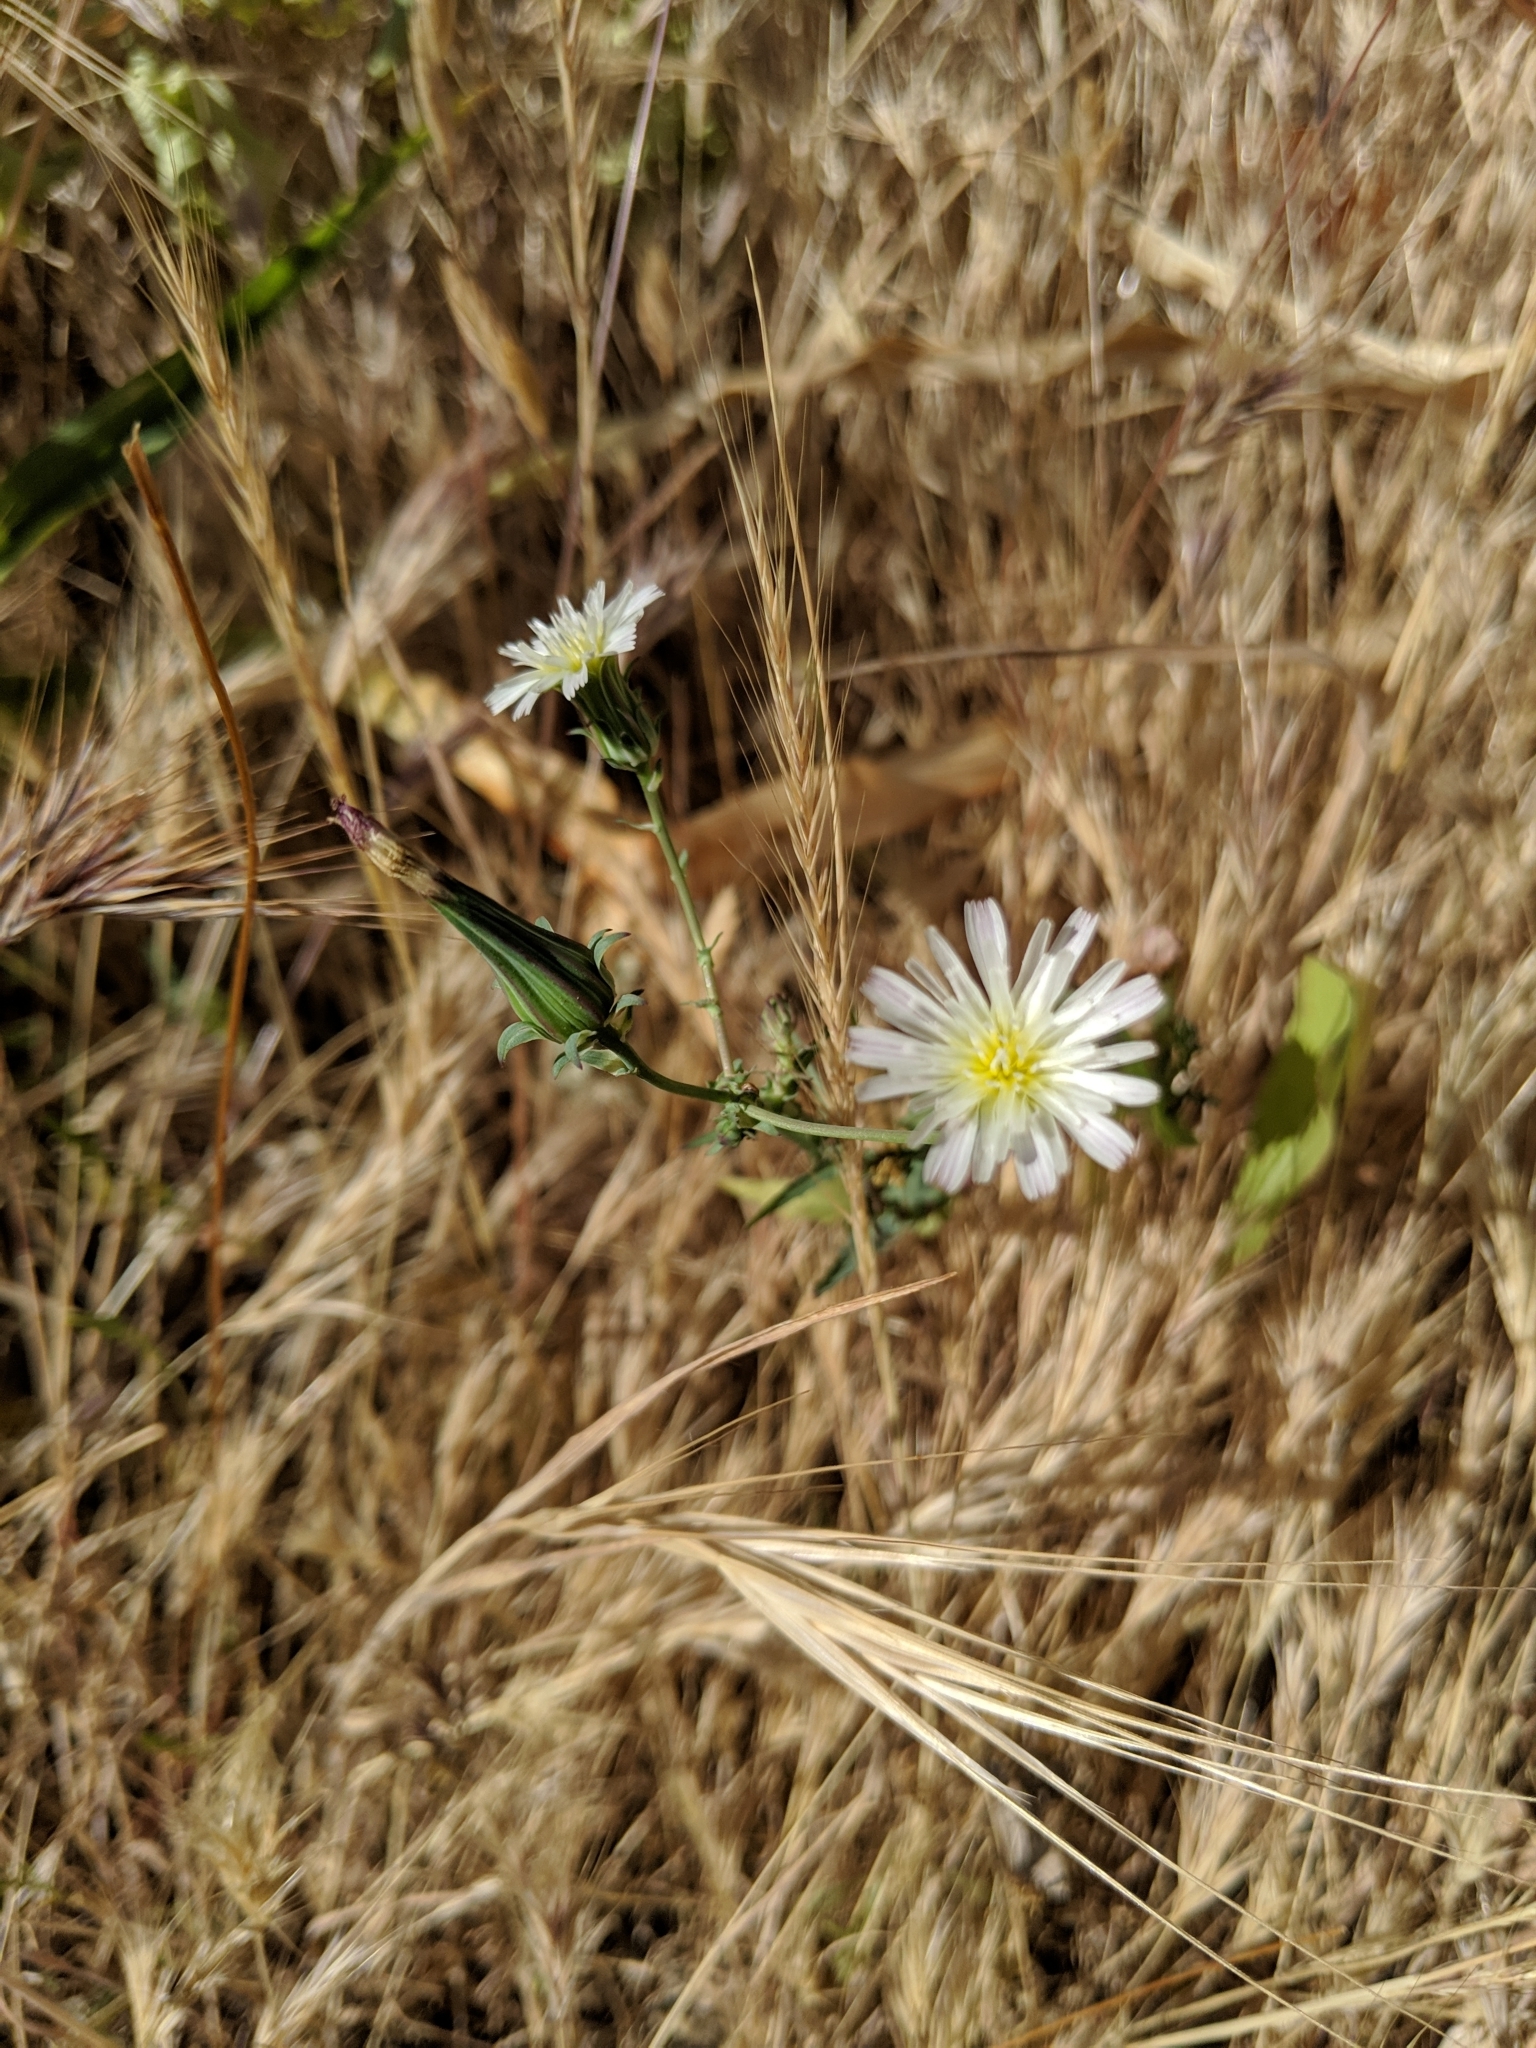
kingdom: Plantae
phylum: Tracheophyta
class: Magnoliopsida
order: Asterales
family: Asteraceae
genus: Rafinesquia
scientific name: Rafinesquia californica
